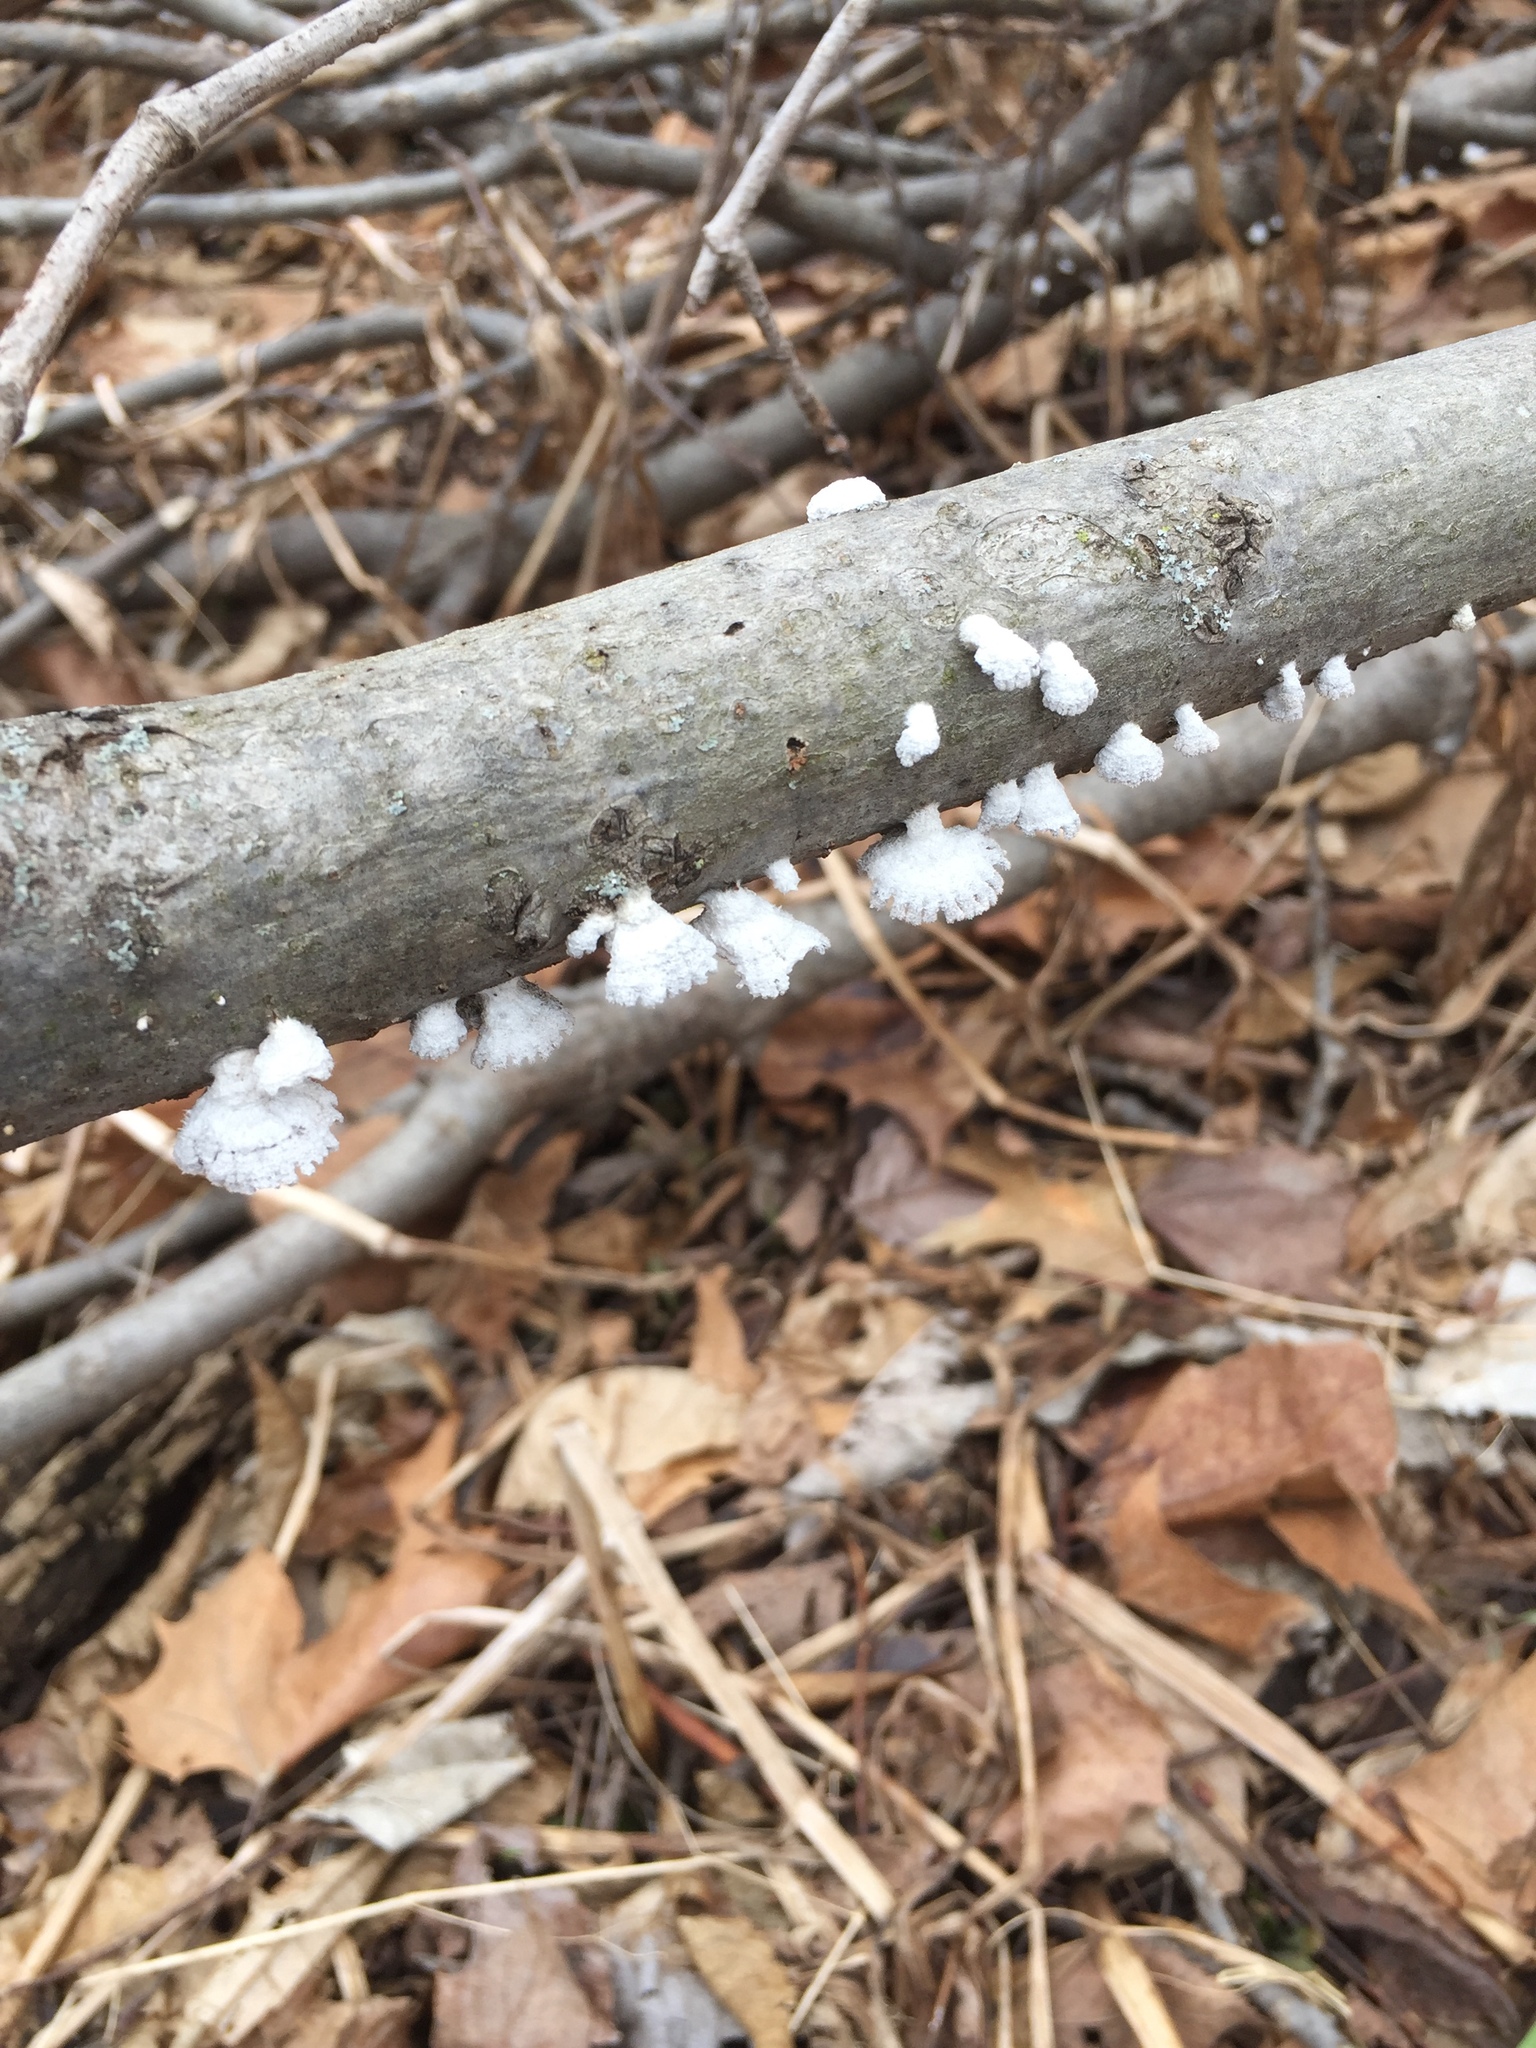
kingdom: Fungi
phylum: Basidiomycota
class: Agaricomycetes
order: Agaricales
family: Schizophyllaceae
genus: Schizophyllum
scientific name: Schizophyllum commune
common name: Common porecrust
